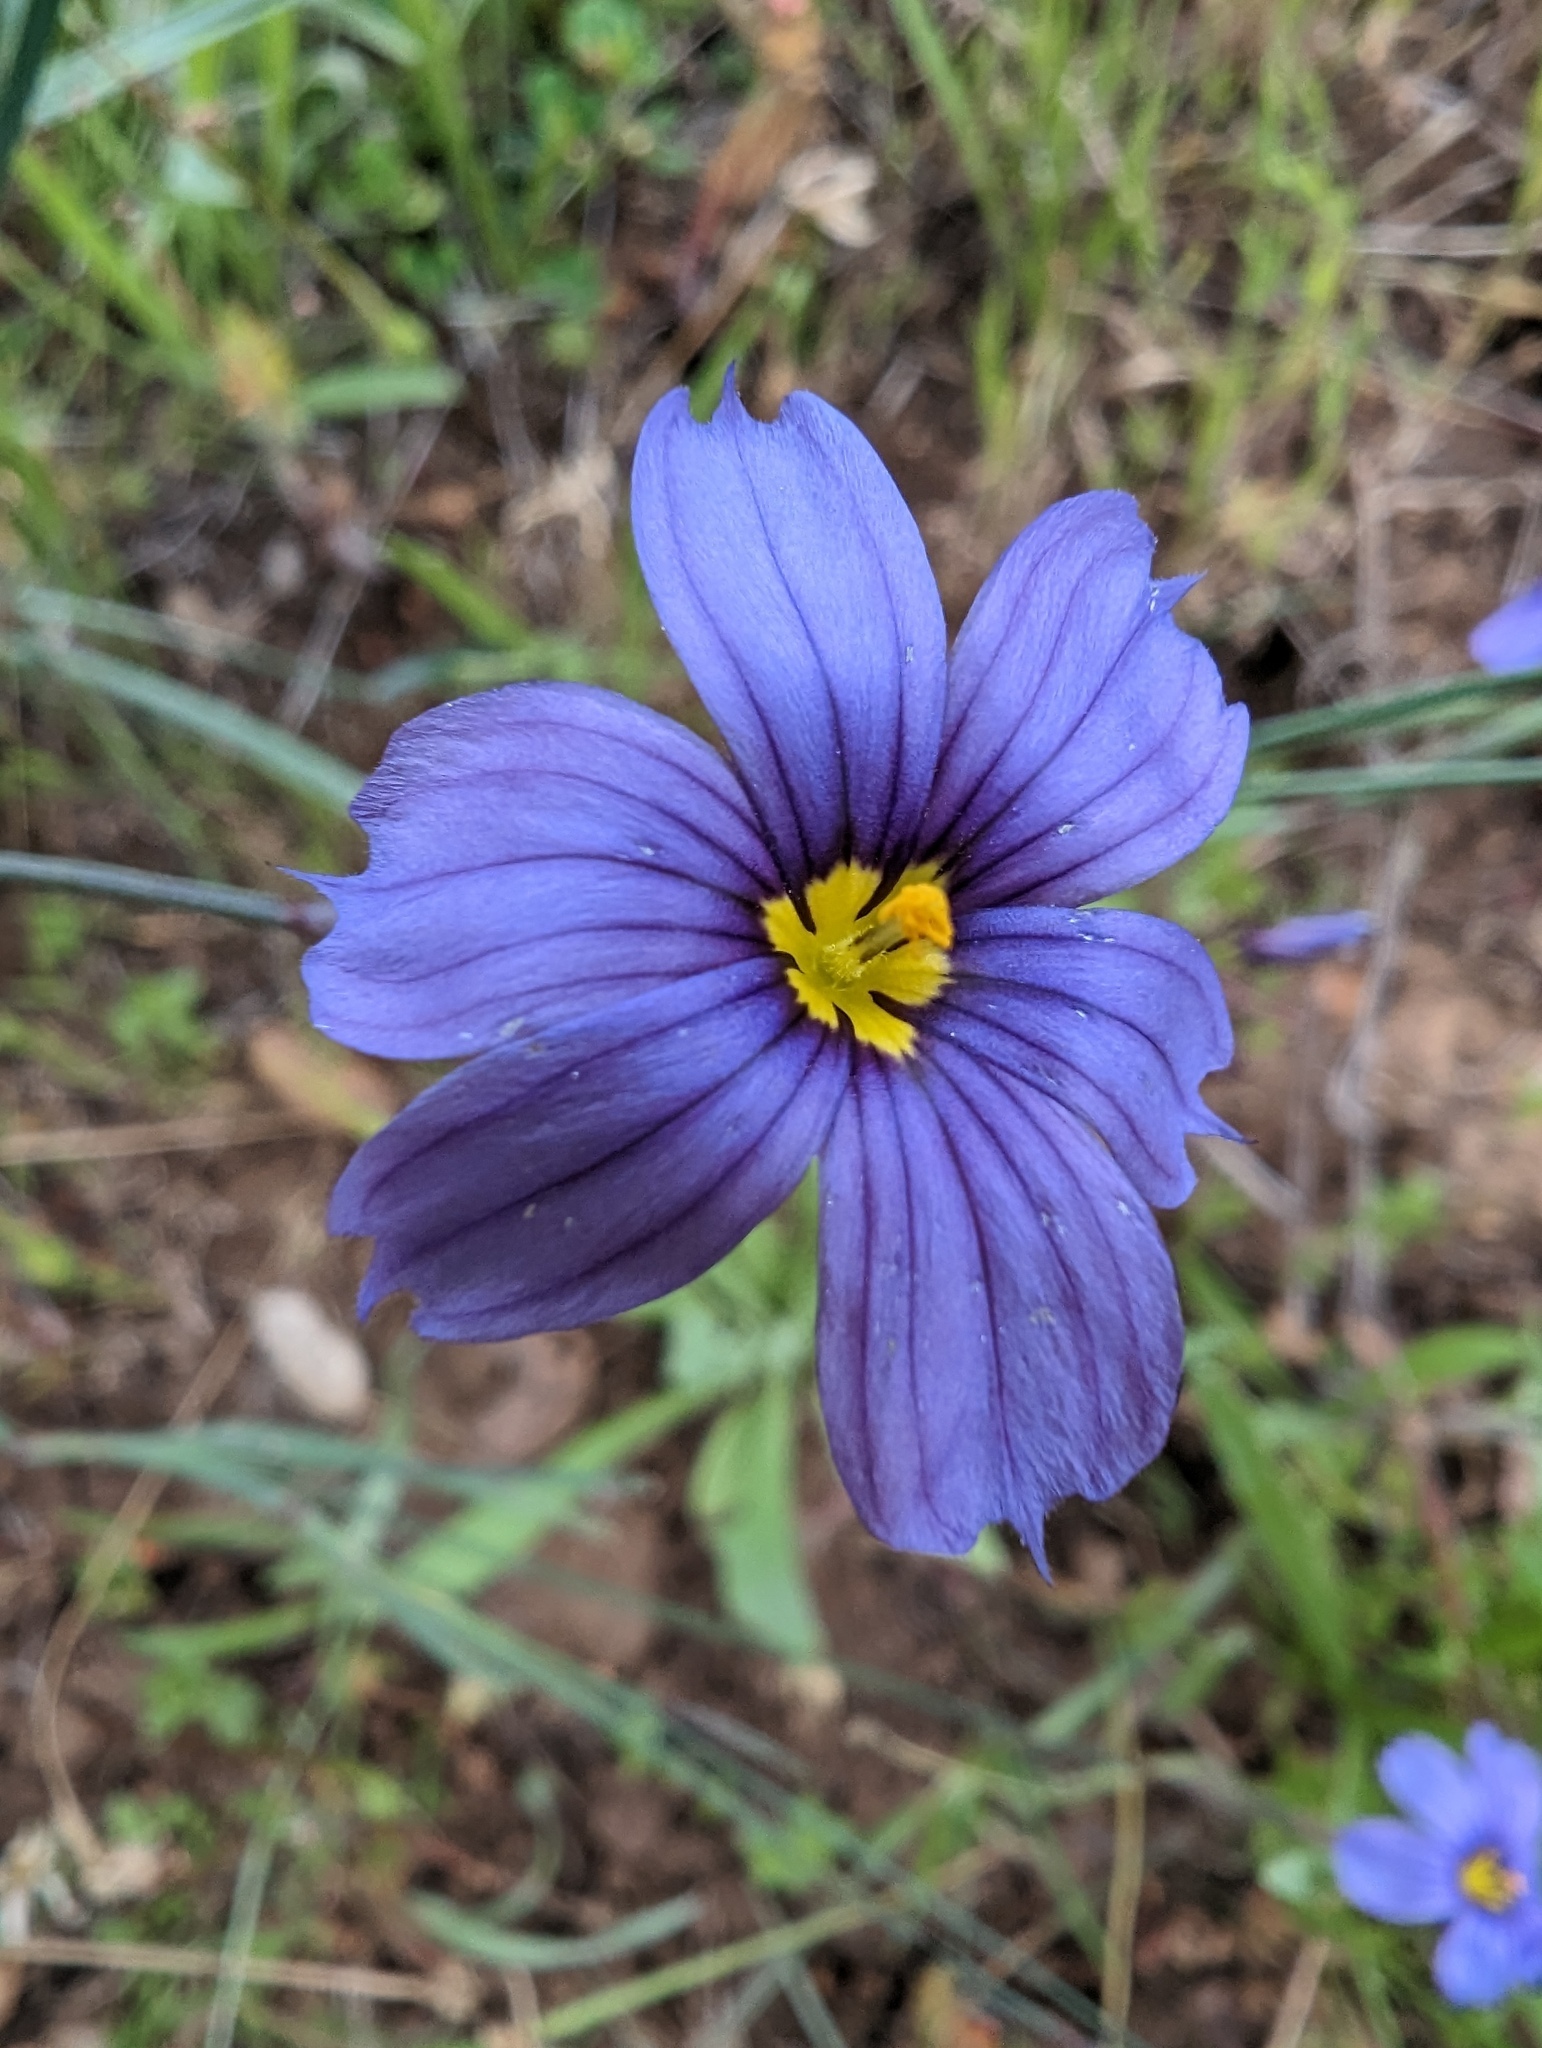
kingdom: Plantae
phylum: Tracheophyta
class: Liliopsida
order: Asparagales
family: Iridaceae
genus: Sisyrinchium
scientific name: Sisyrinchium bellum
